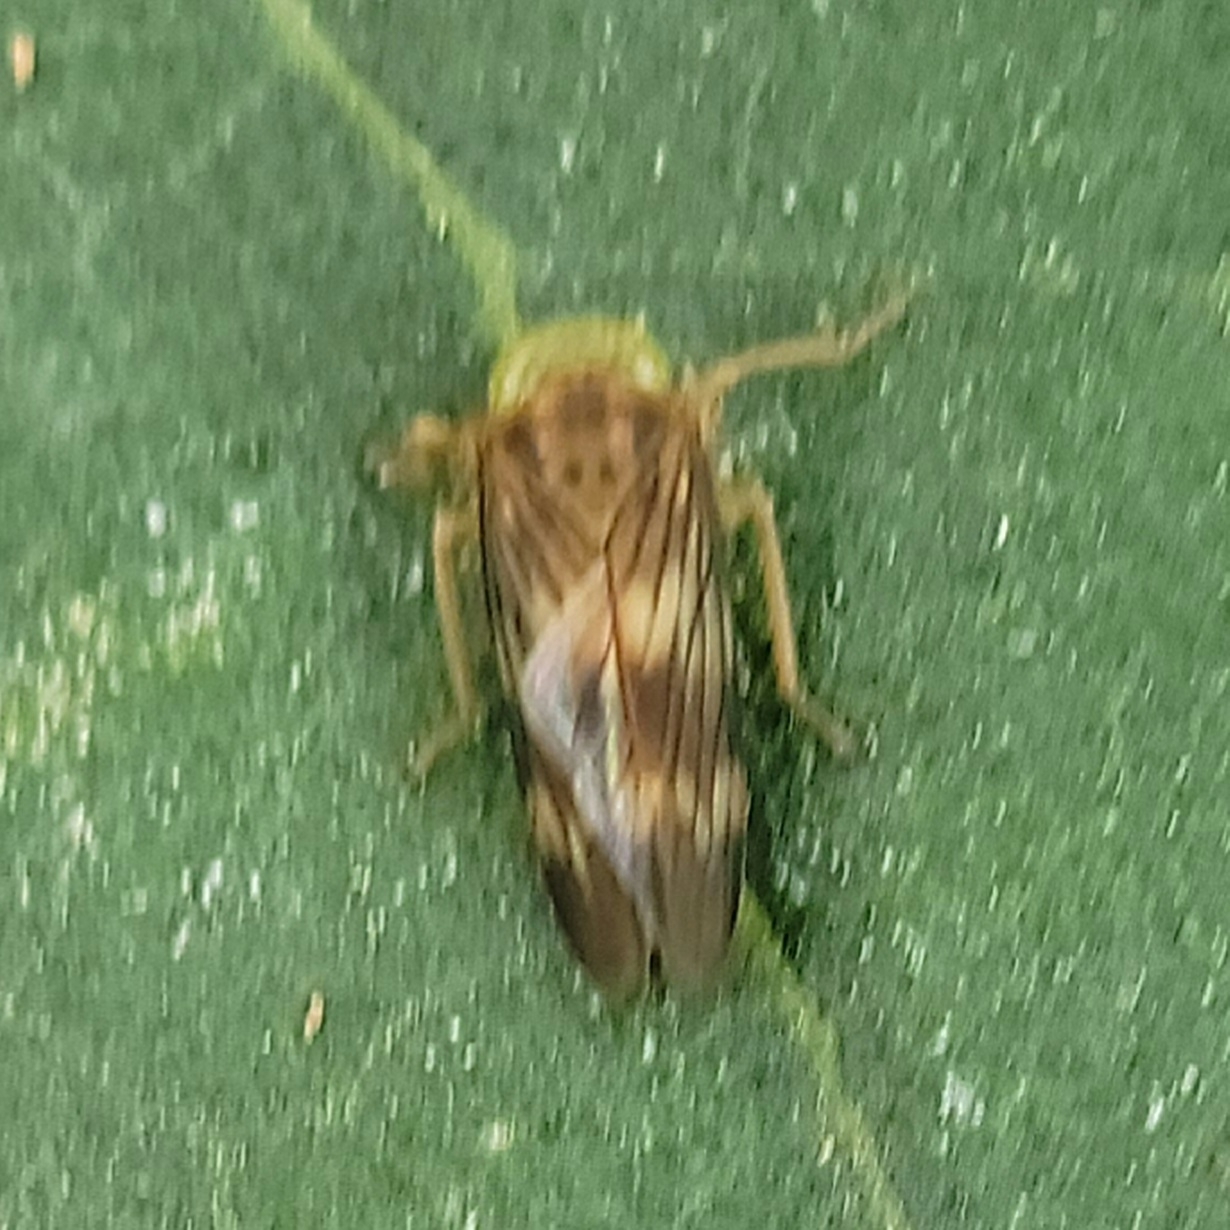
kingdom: Animalia
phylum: Arthropoda
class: Insecta
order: Hemiptera
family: Cicadellidae
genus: Jikradia
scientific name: Jikradia olitoria
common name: Coppery leafhopper
